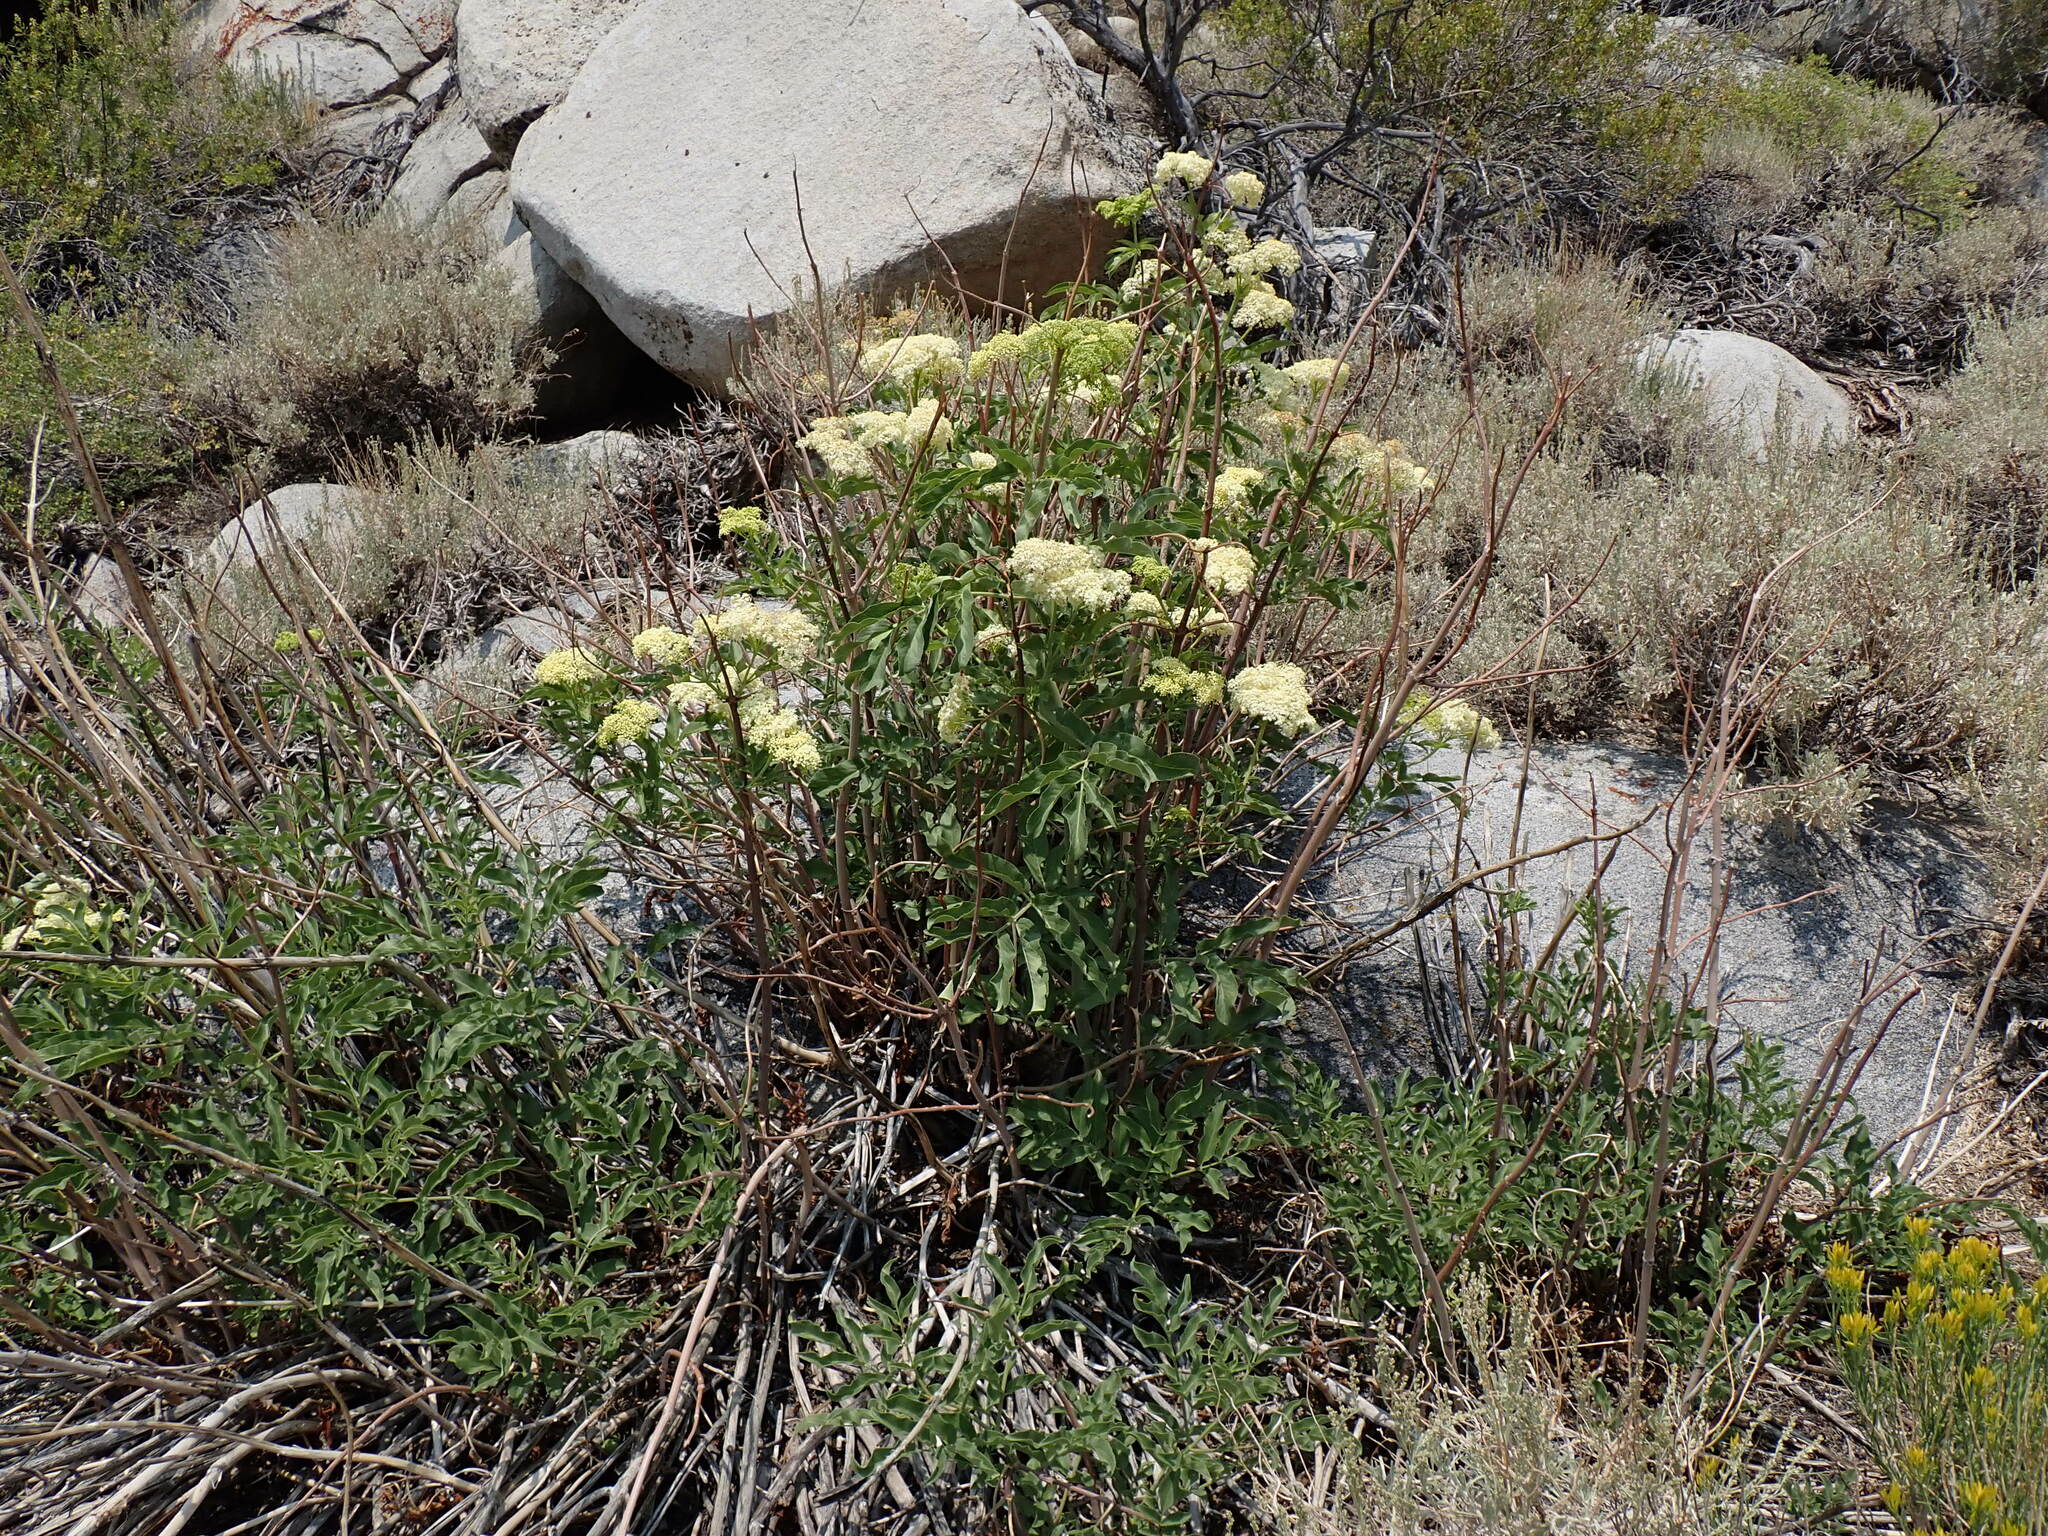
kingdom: Plantae
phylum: Tracheophyta
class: Magnoliopsida
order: Dipsacales
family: Viburnaceae
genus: Sambucus
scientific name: Sambucus cerulea
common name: Blue elder
